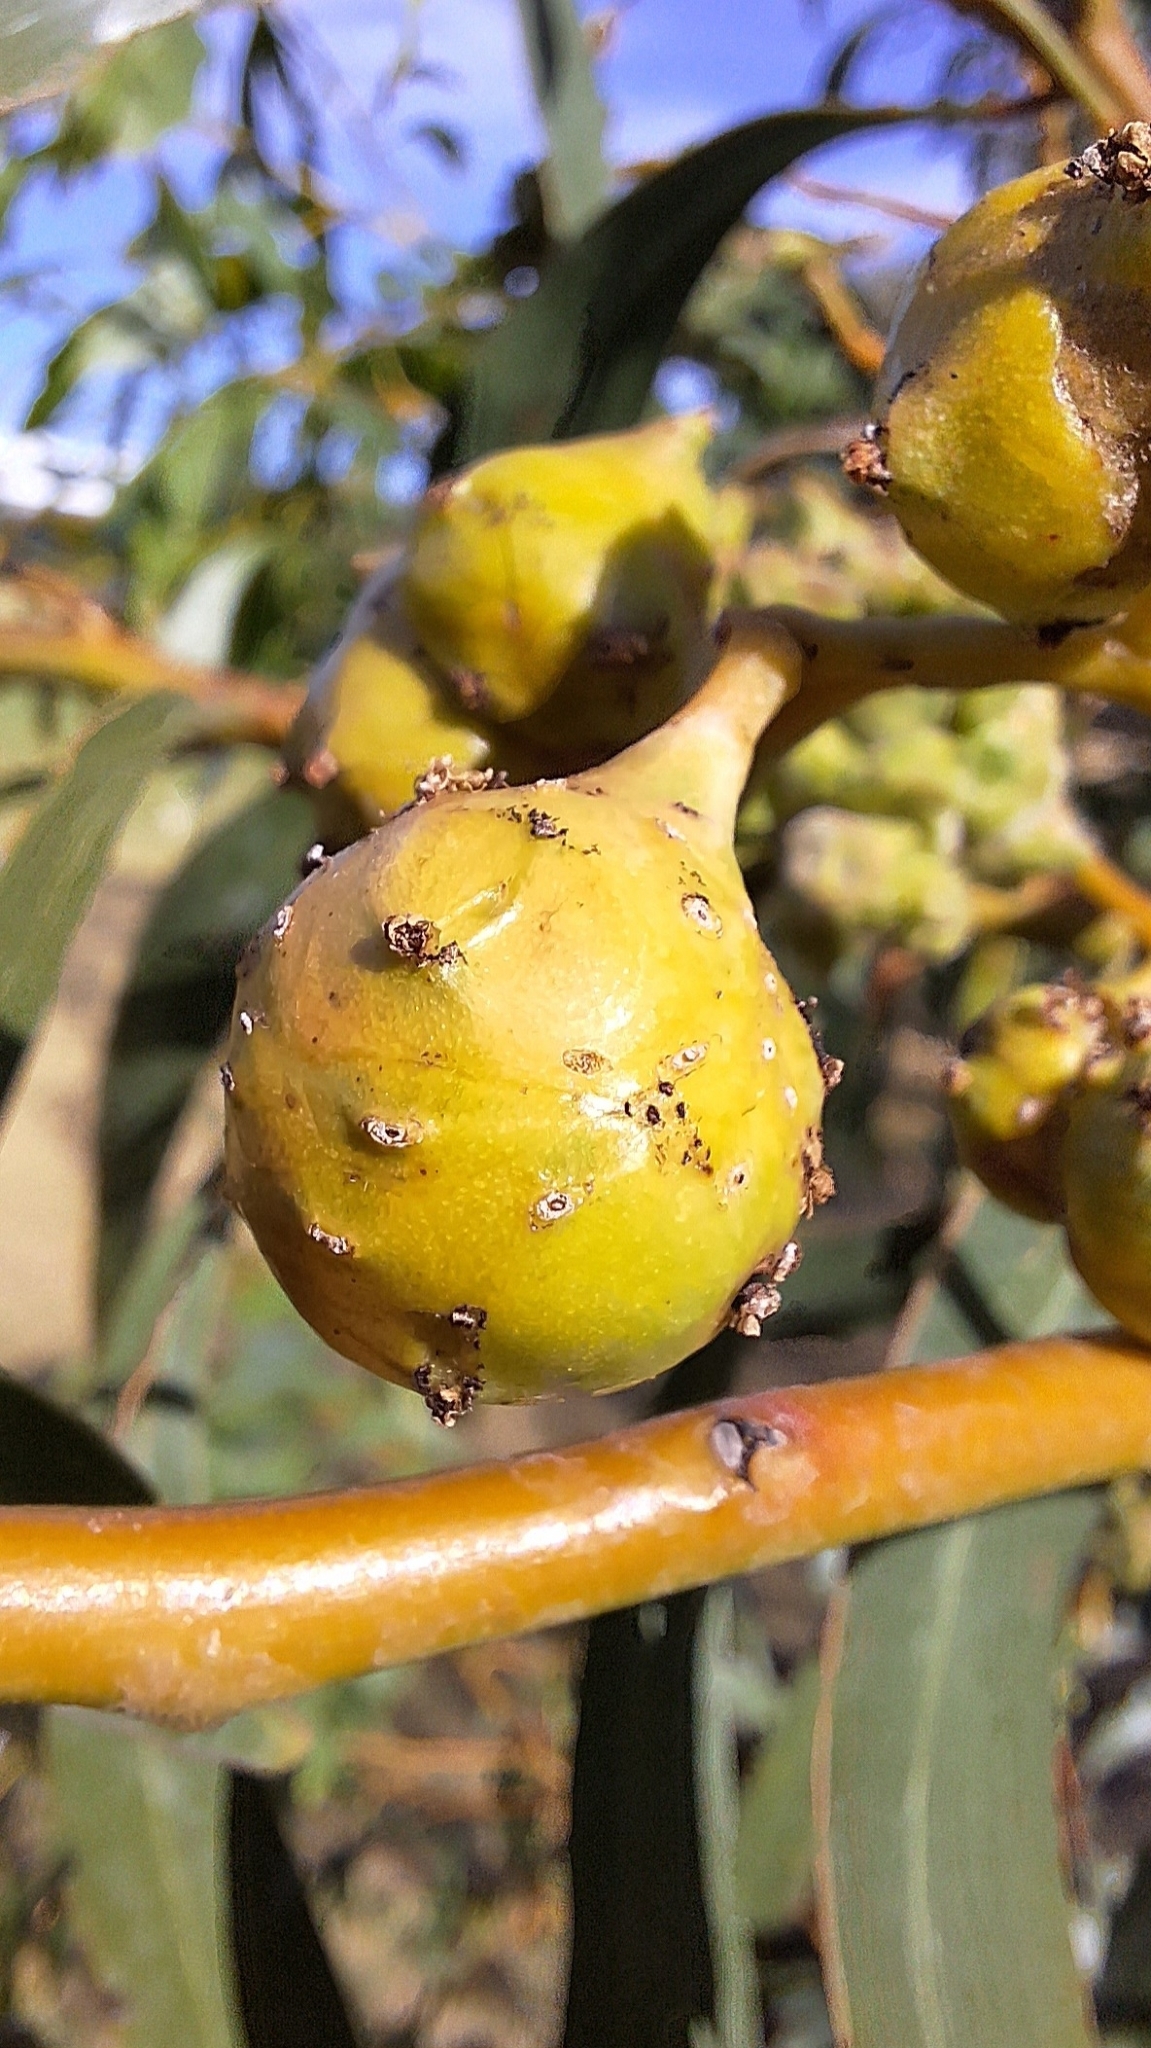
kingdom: Animalia
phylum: Arthropoda
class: Insecta
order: Hymenoptera
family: Pteromalidae
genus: Trichilogaster
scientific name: Trichilogaster signiventris
